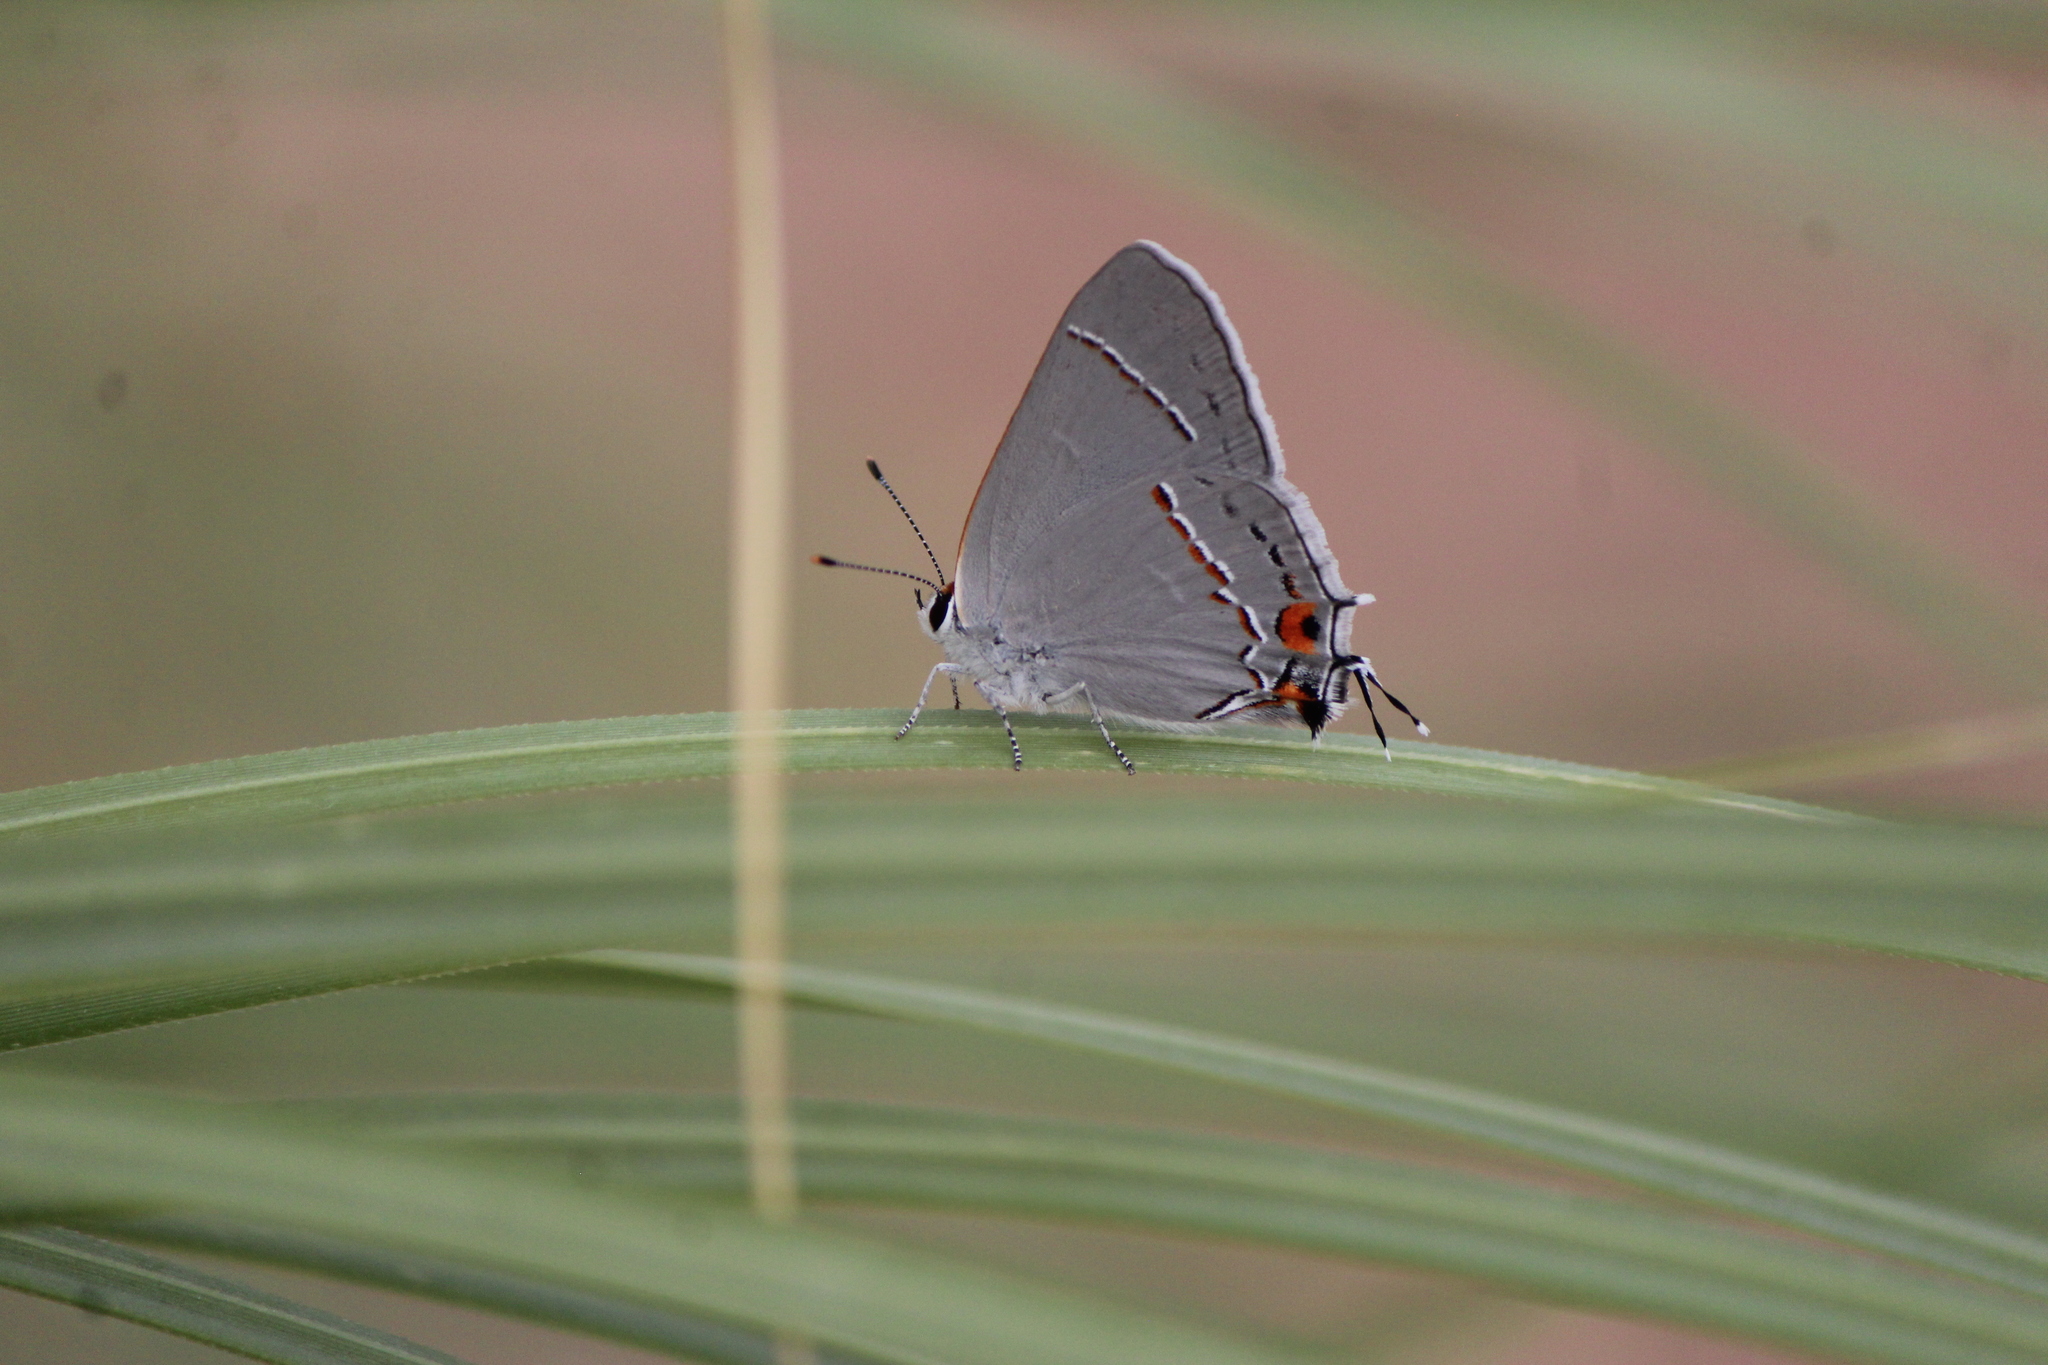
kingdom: Animalia
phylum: Arthropoda
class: Insecta
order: Lepidoptera
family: Lycaenidae
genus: Strymon
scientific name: Strymon melinus
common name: Gray hairstreak
